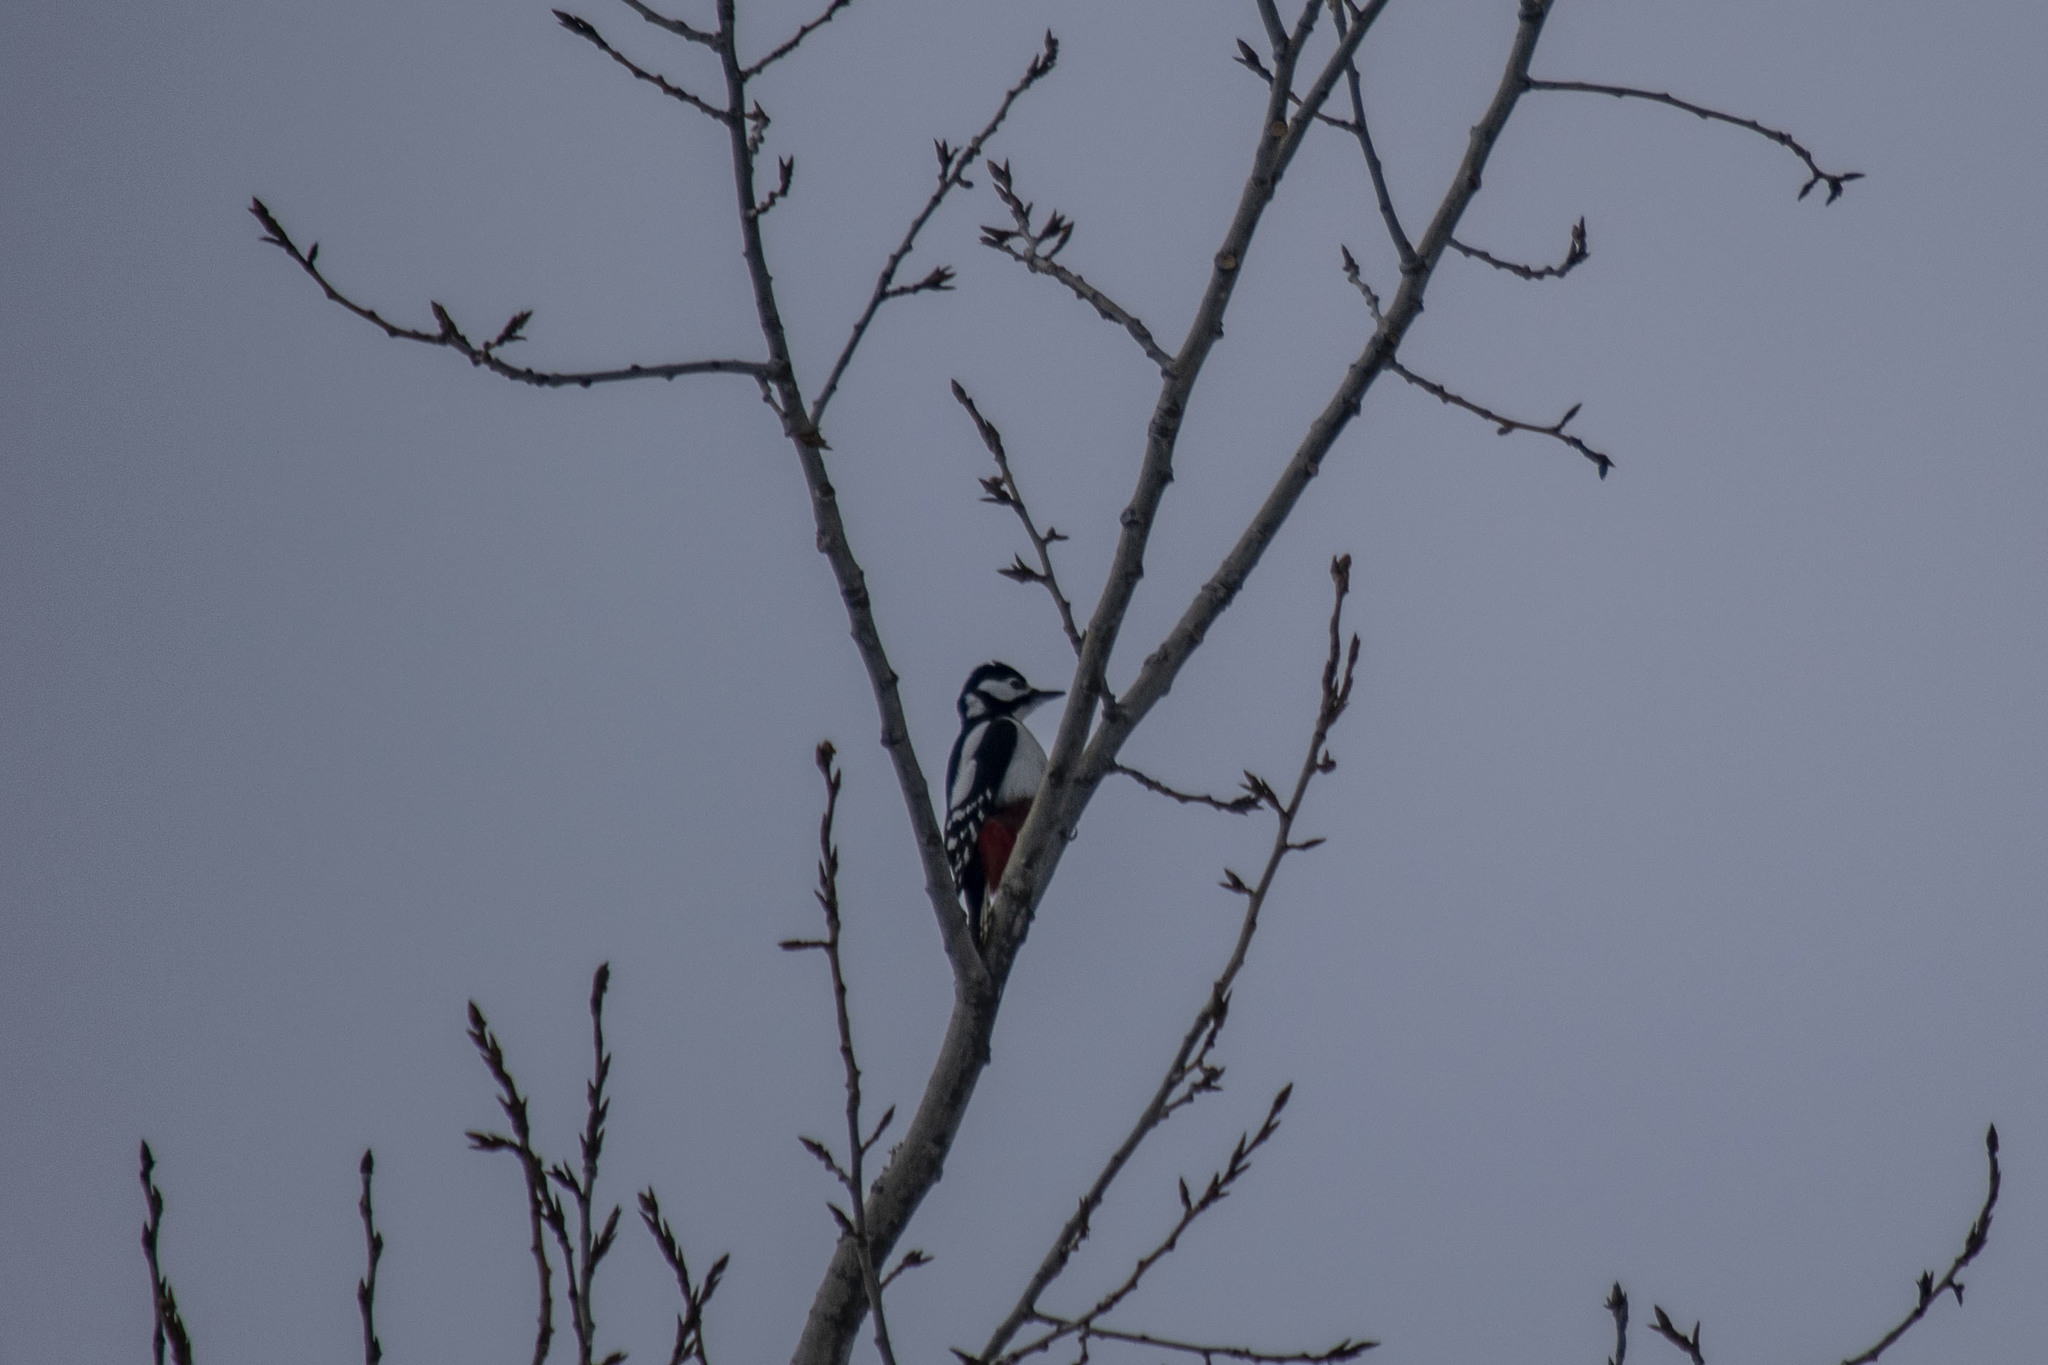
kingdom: Animalia
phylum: Chordata
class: Aves
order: Piciformes
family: Picidae
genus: Dendrocopos
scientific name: Dendrocopos major
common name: Great spotted woodpecker
